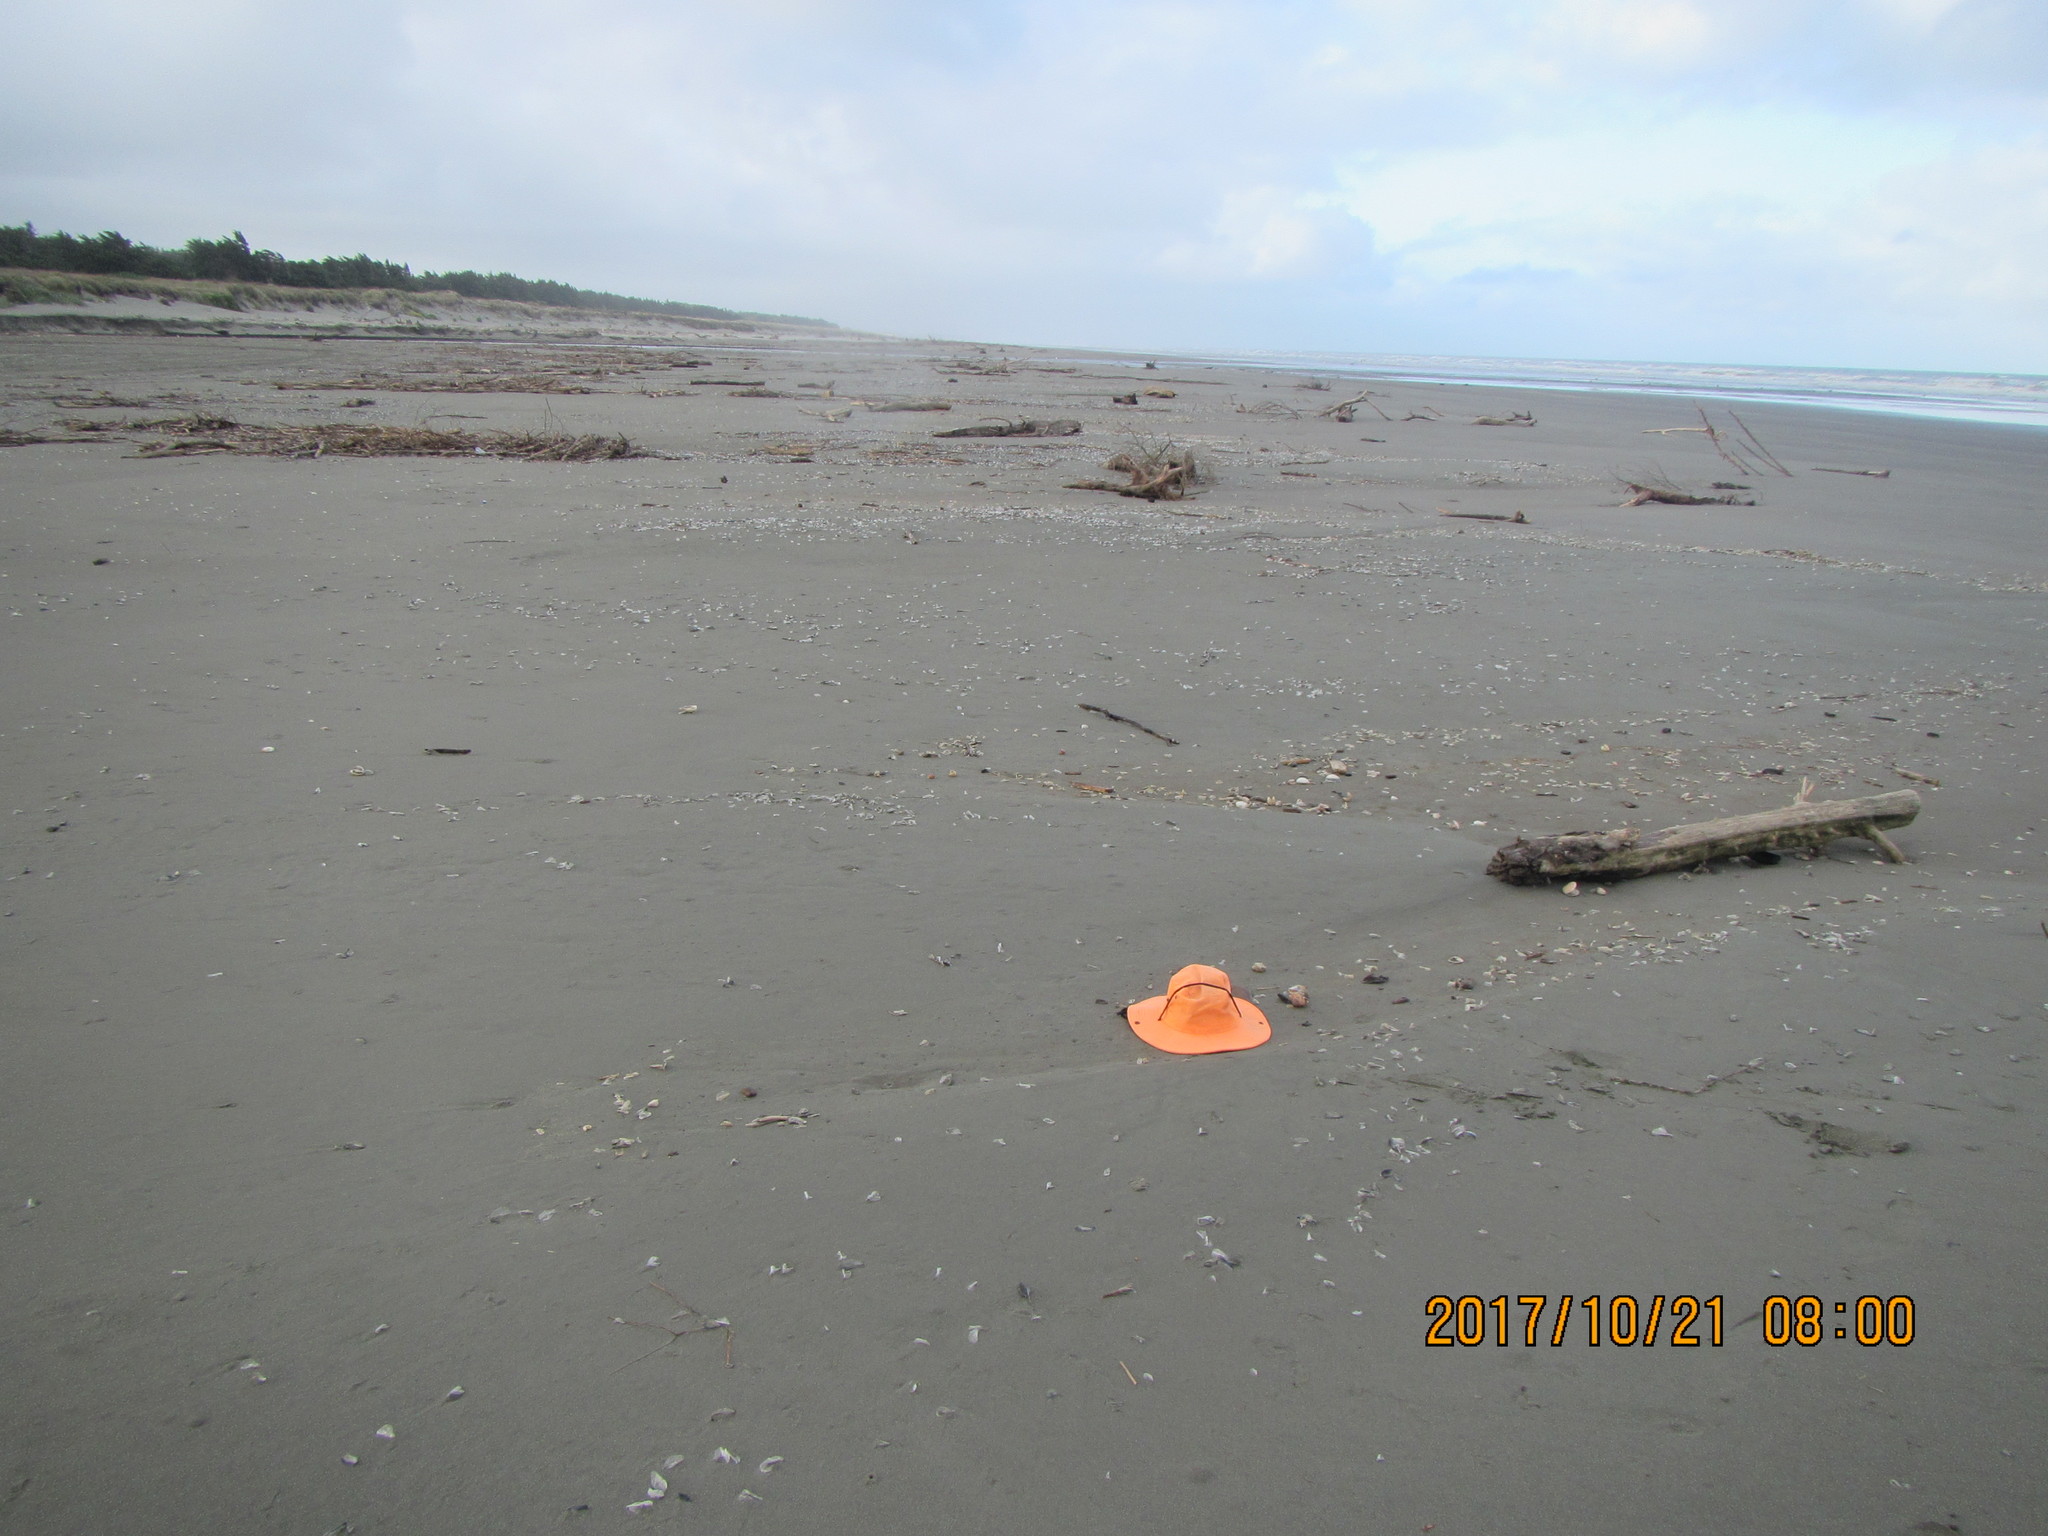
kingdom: Animalia
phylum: Mollusca
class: Gastropoda
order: Littorinimorpha
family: Cassidae
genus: Semicassis
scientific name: Semicassis pyrum
